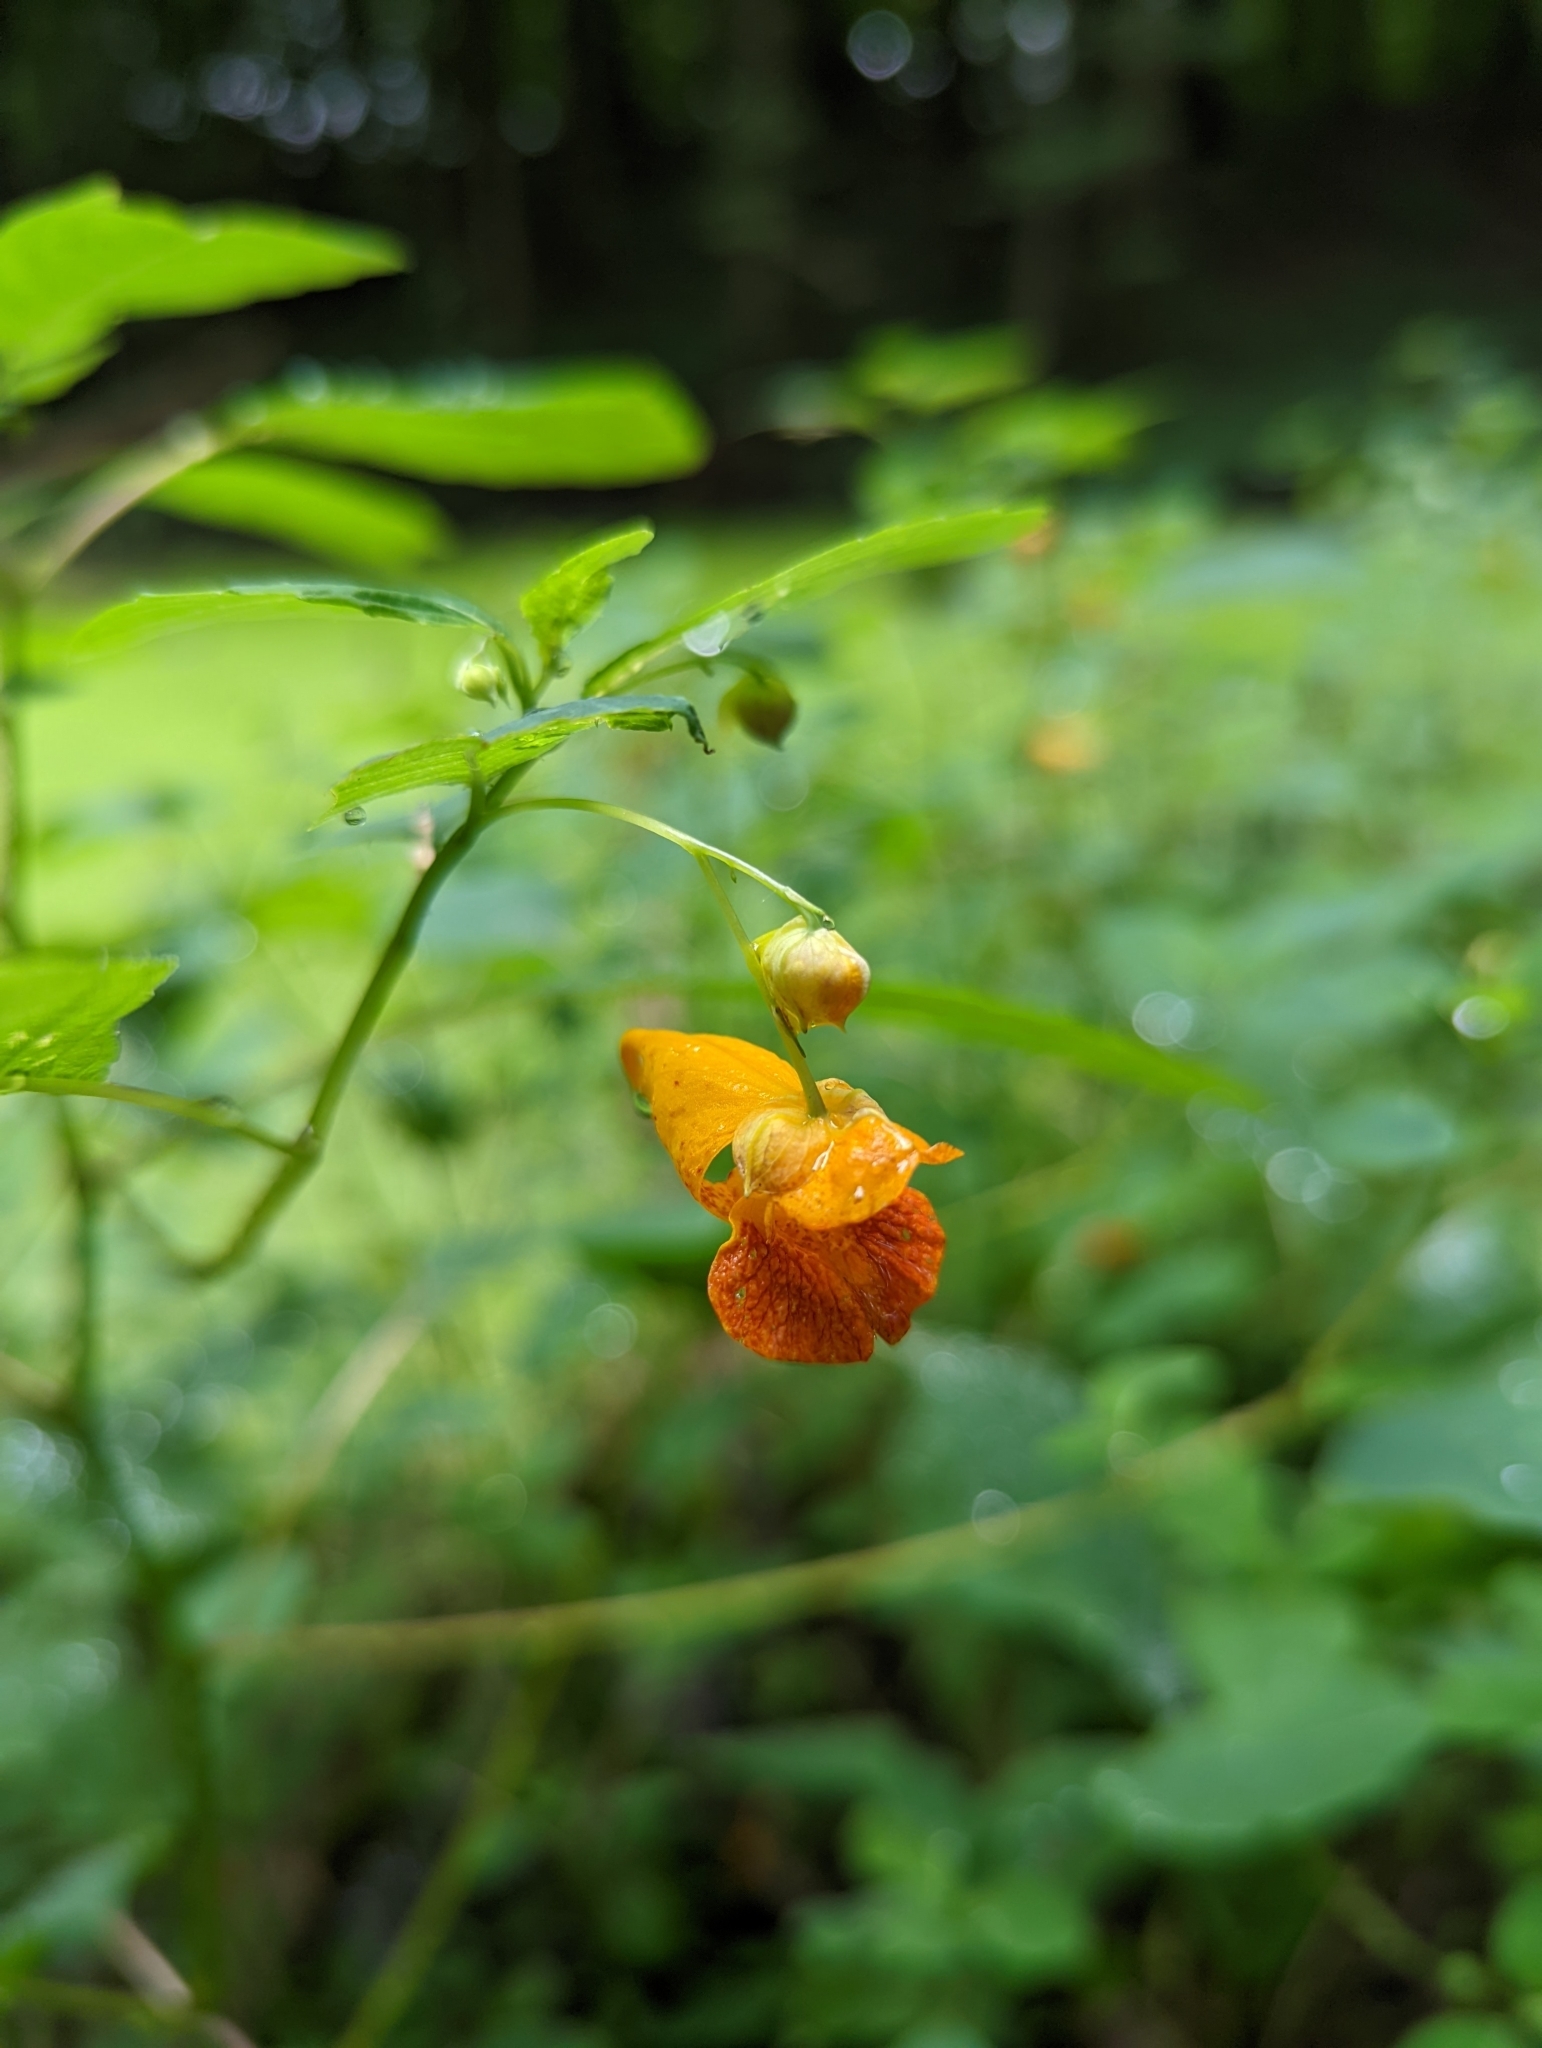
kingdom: Plantae
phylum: Tracheophyta
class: Magnoliopsida
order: Ericales
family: Balsaminaceae
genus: Impatiens
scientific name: Impatiens capensis
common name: Orange balsam
